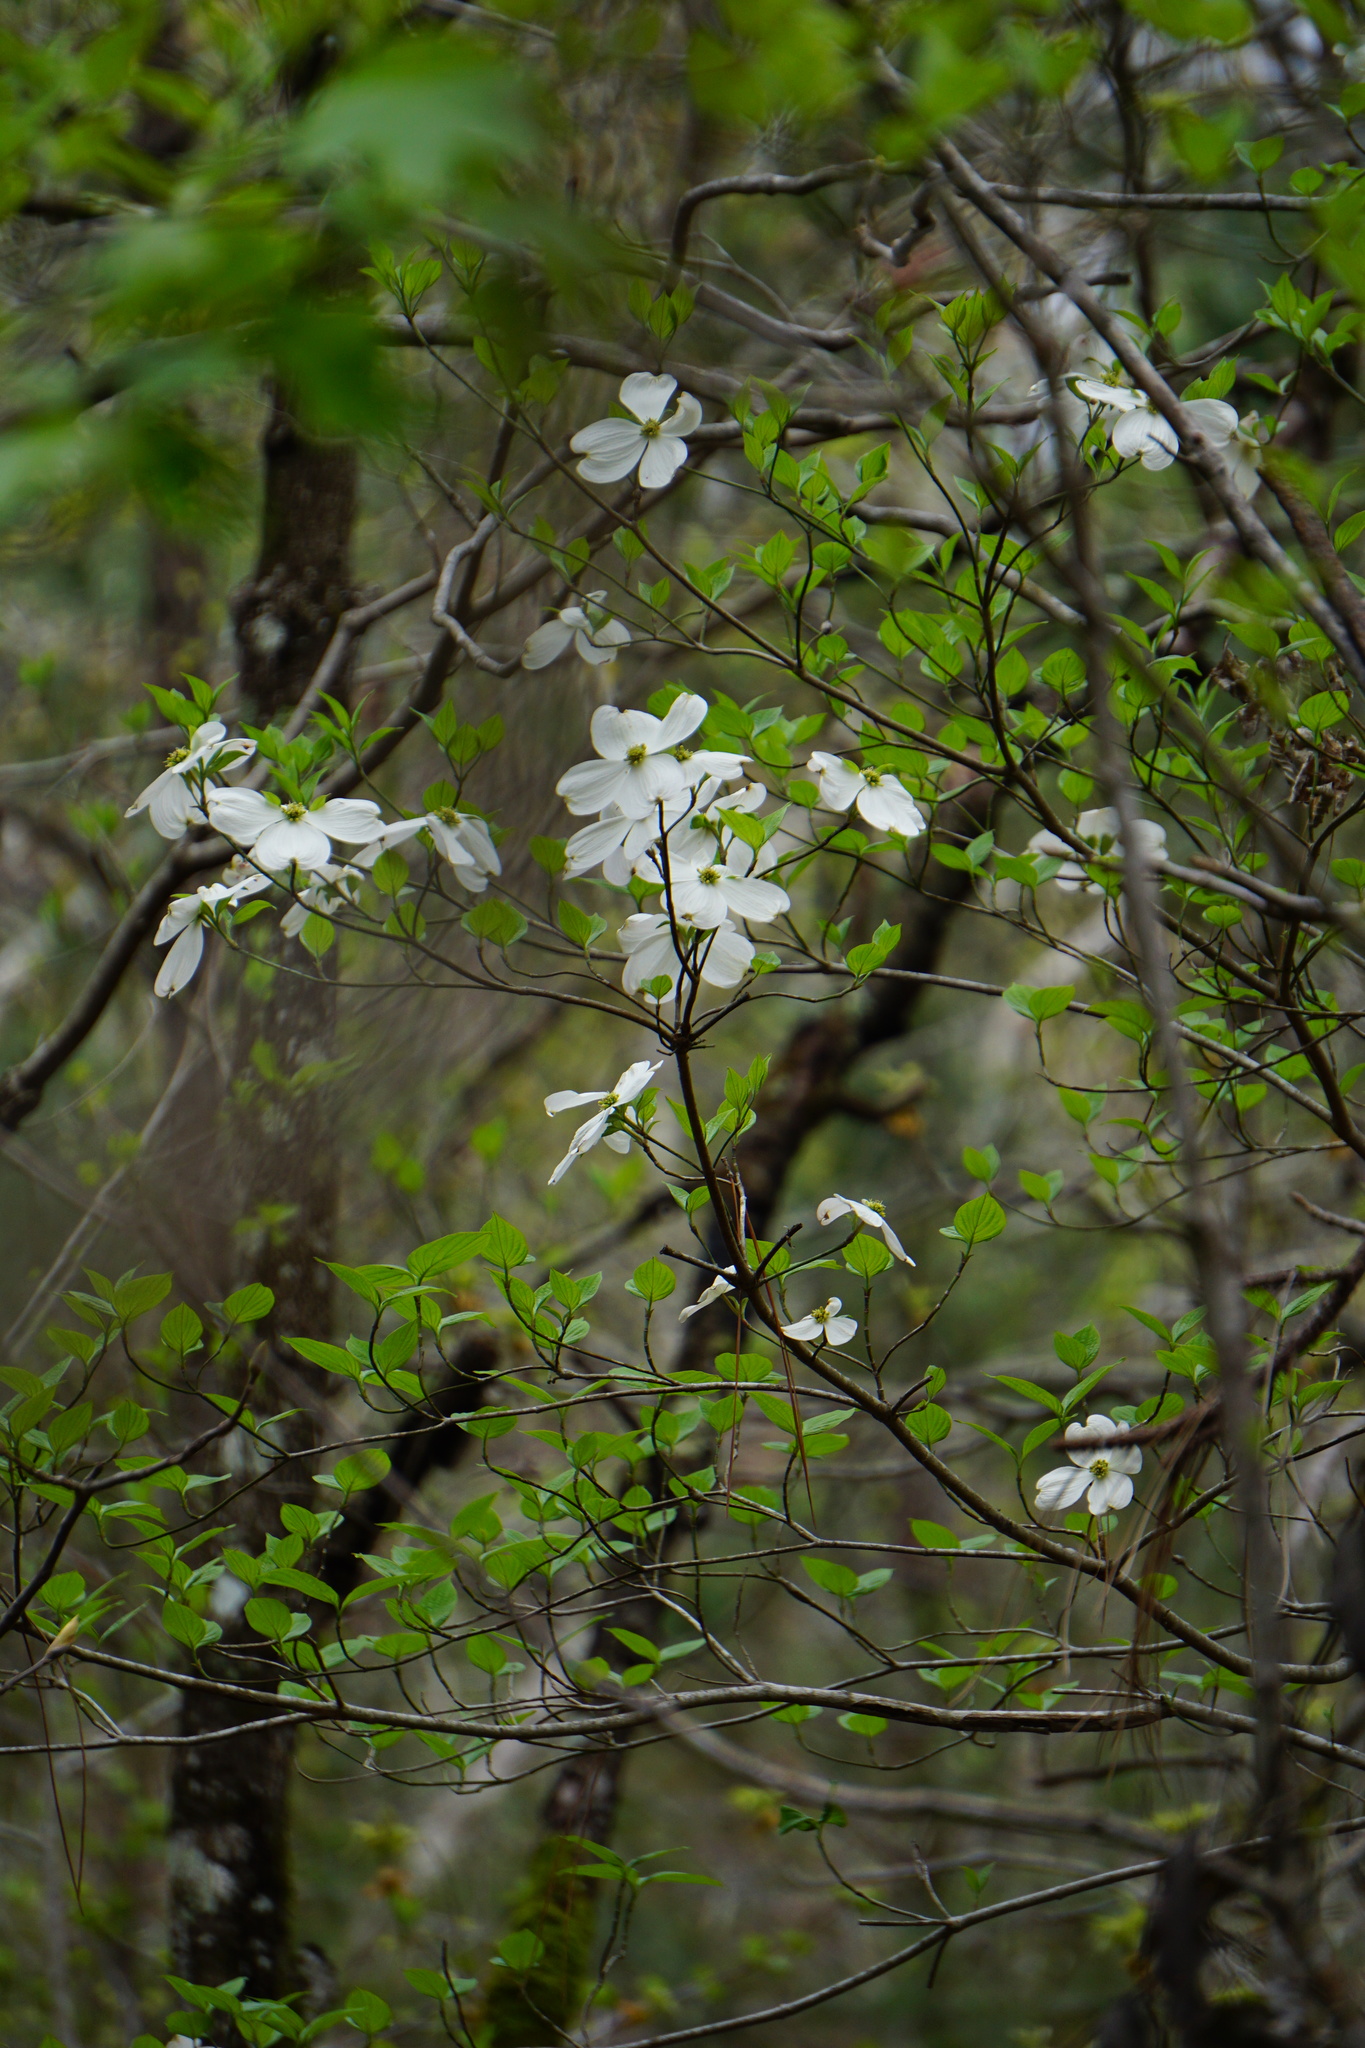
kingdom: Plantae
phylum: Tracheophyta
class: Magnoliopsida
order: Cornales
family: Cornaceae
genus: Cornus
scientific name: Cornus florida
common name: Flowering dogwood
